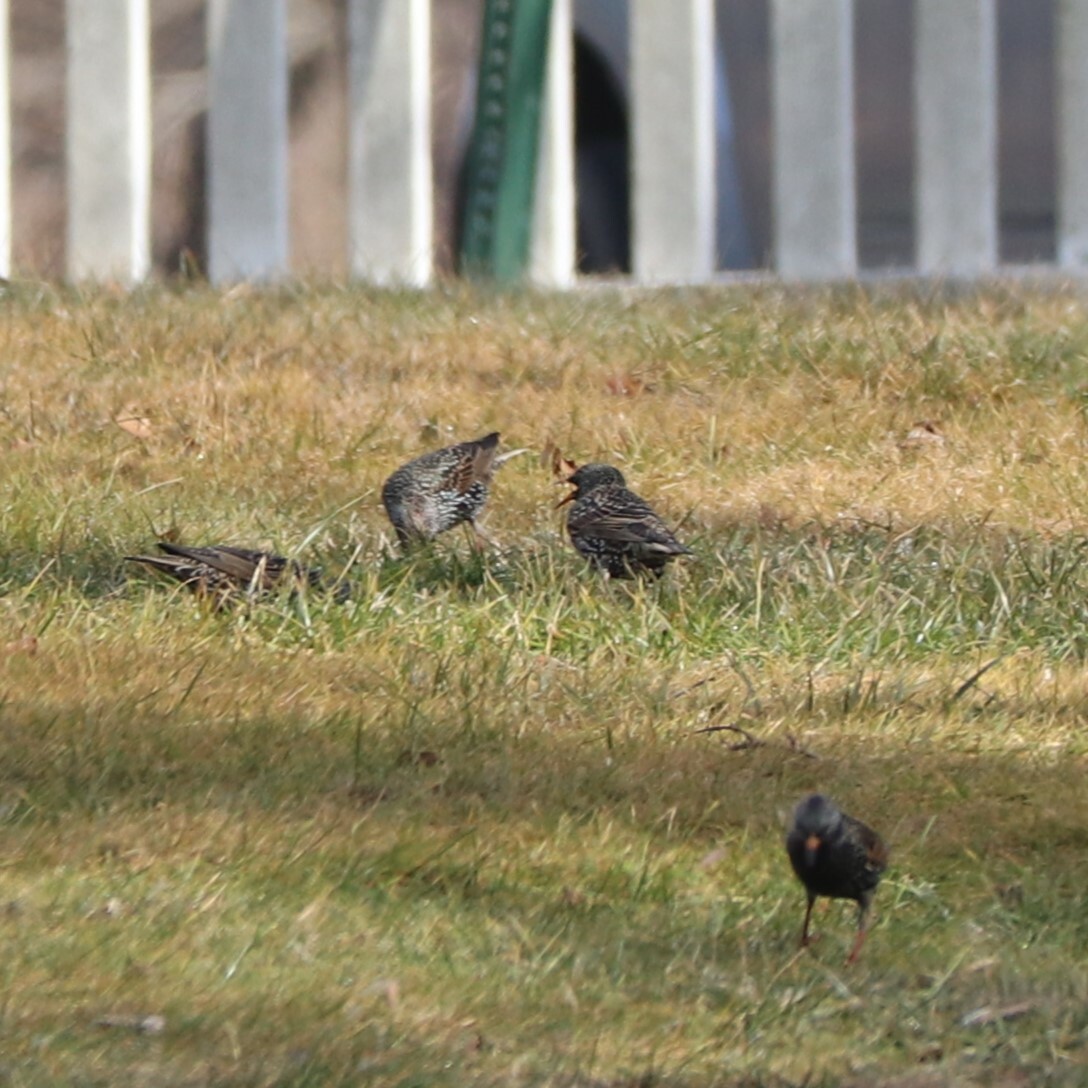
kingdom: Animalia
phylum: Chordata
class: Aves
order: Passeriformes
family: Sturnidae
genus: Sturnus
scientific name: Sturnus vulgaris
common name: Common starling
